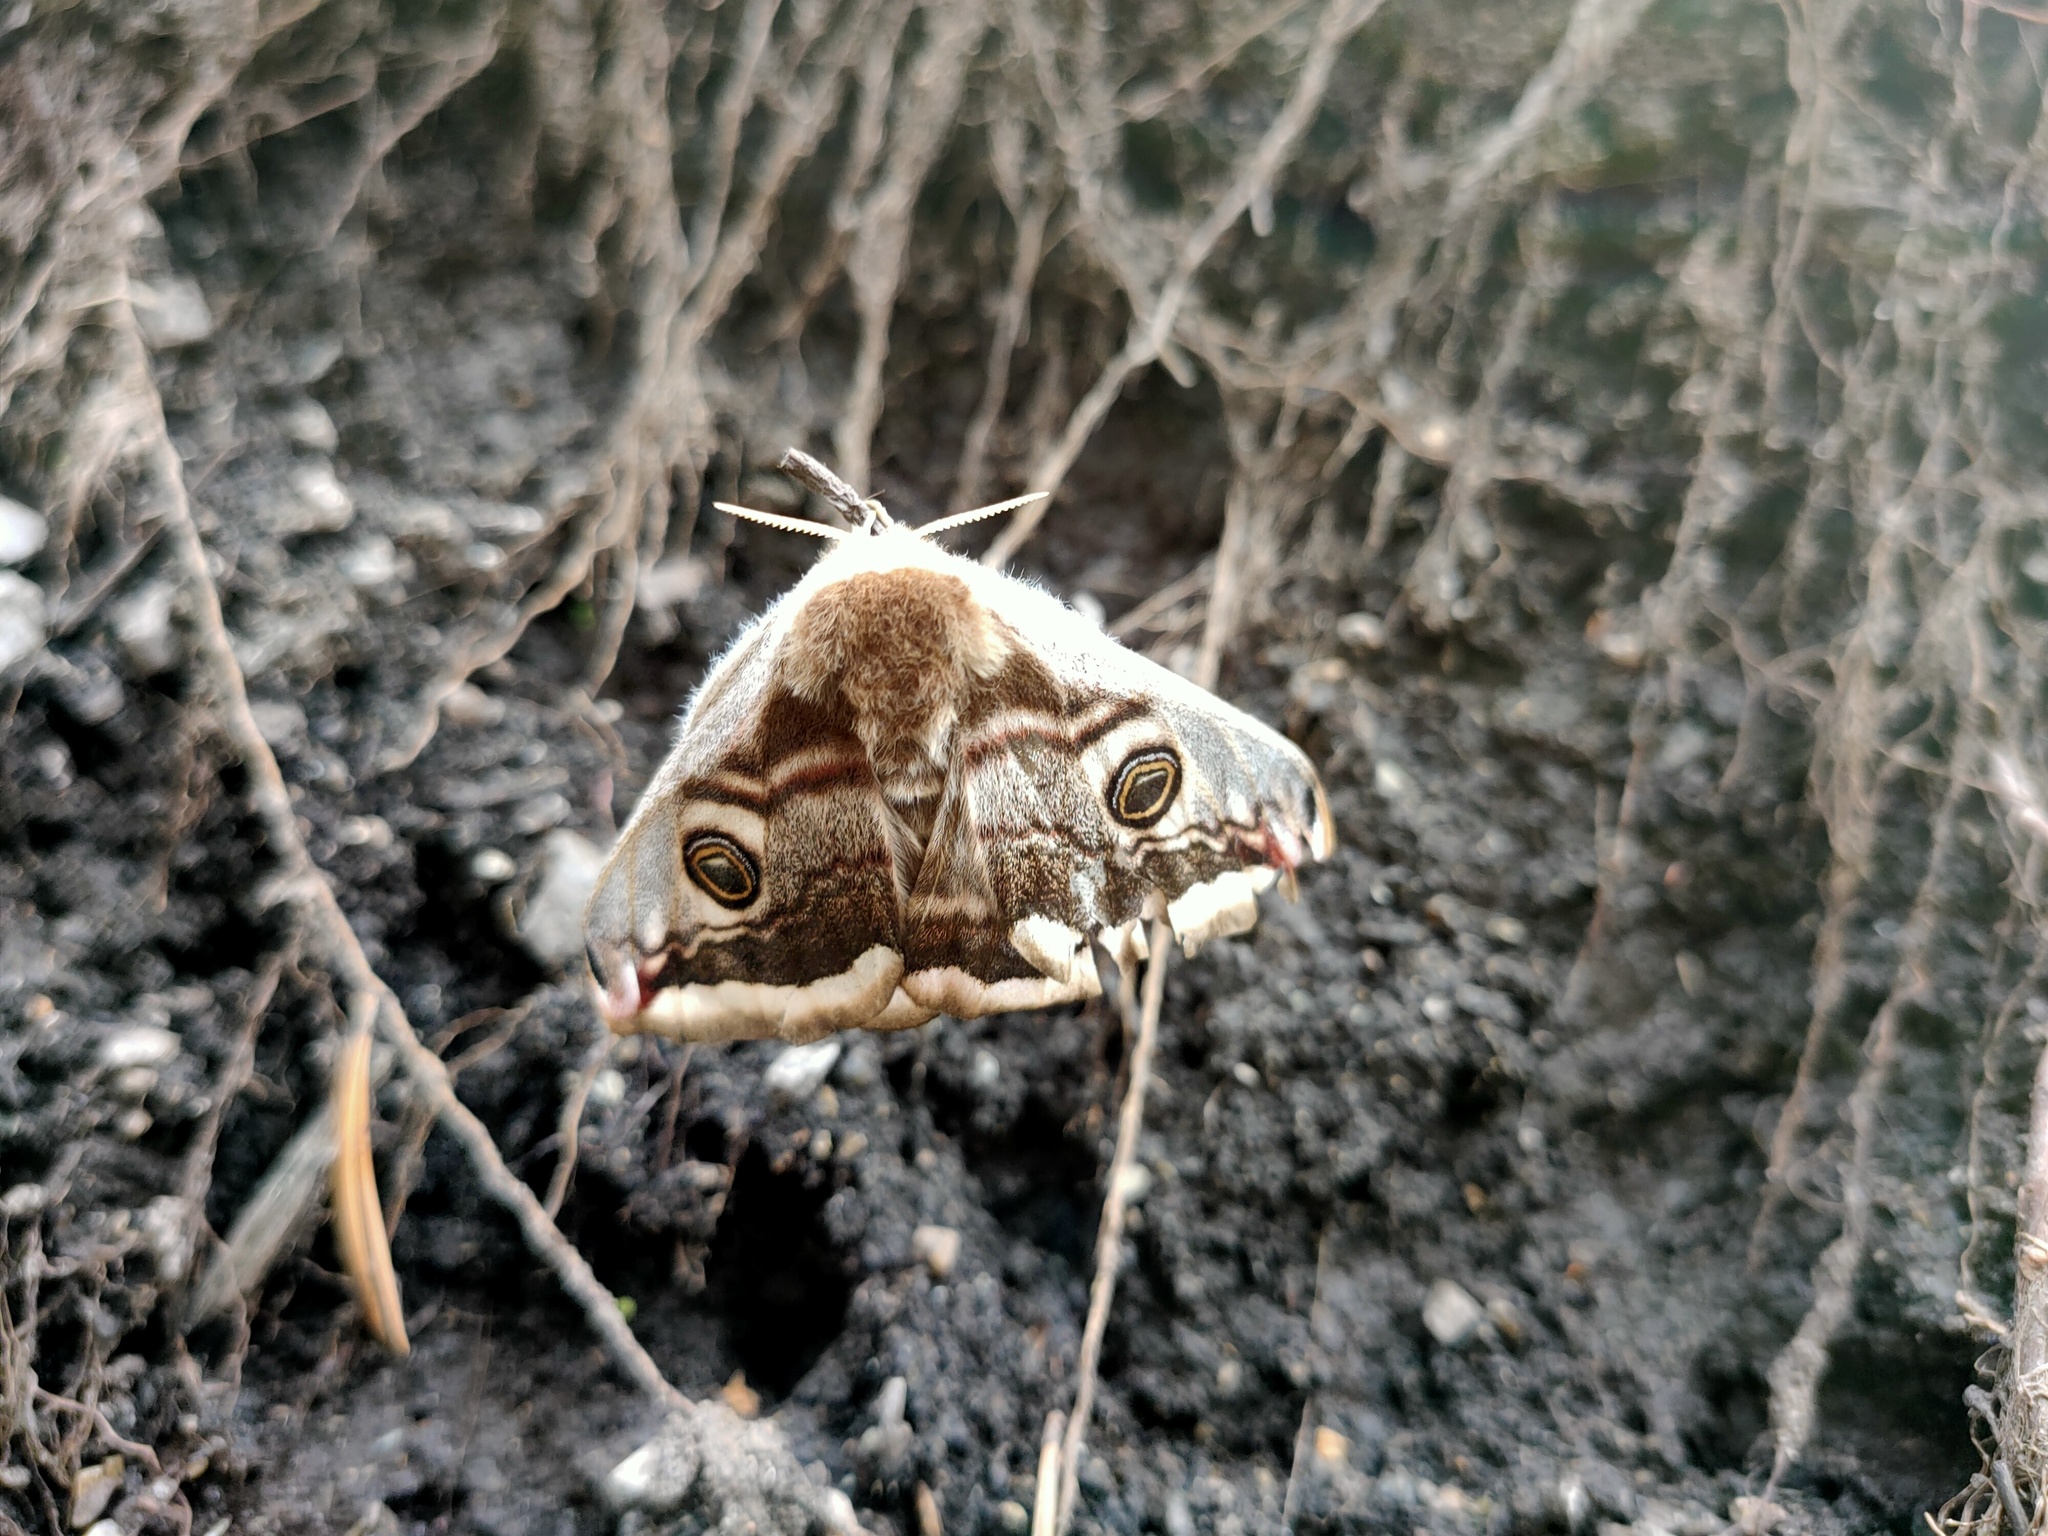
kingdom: Animalia
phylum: Arthropoda
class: Insecta
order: Lepidoptera
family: Saturniidae
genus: Saturnia
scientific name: Saturnia pavonia
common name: Emperor moth
